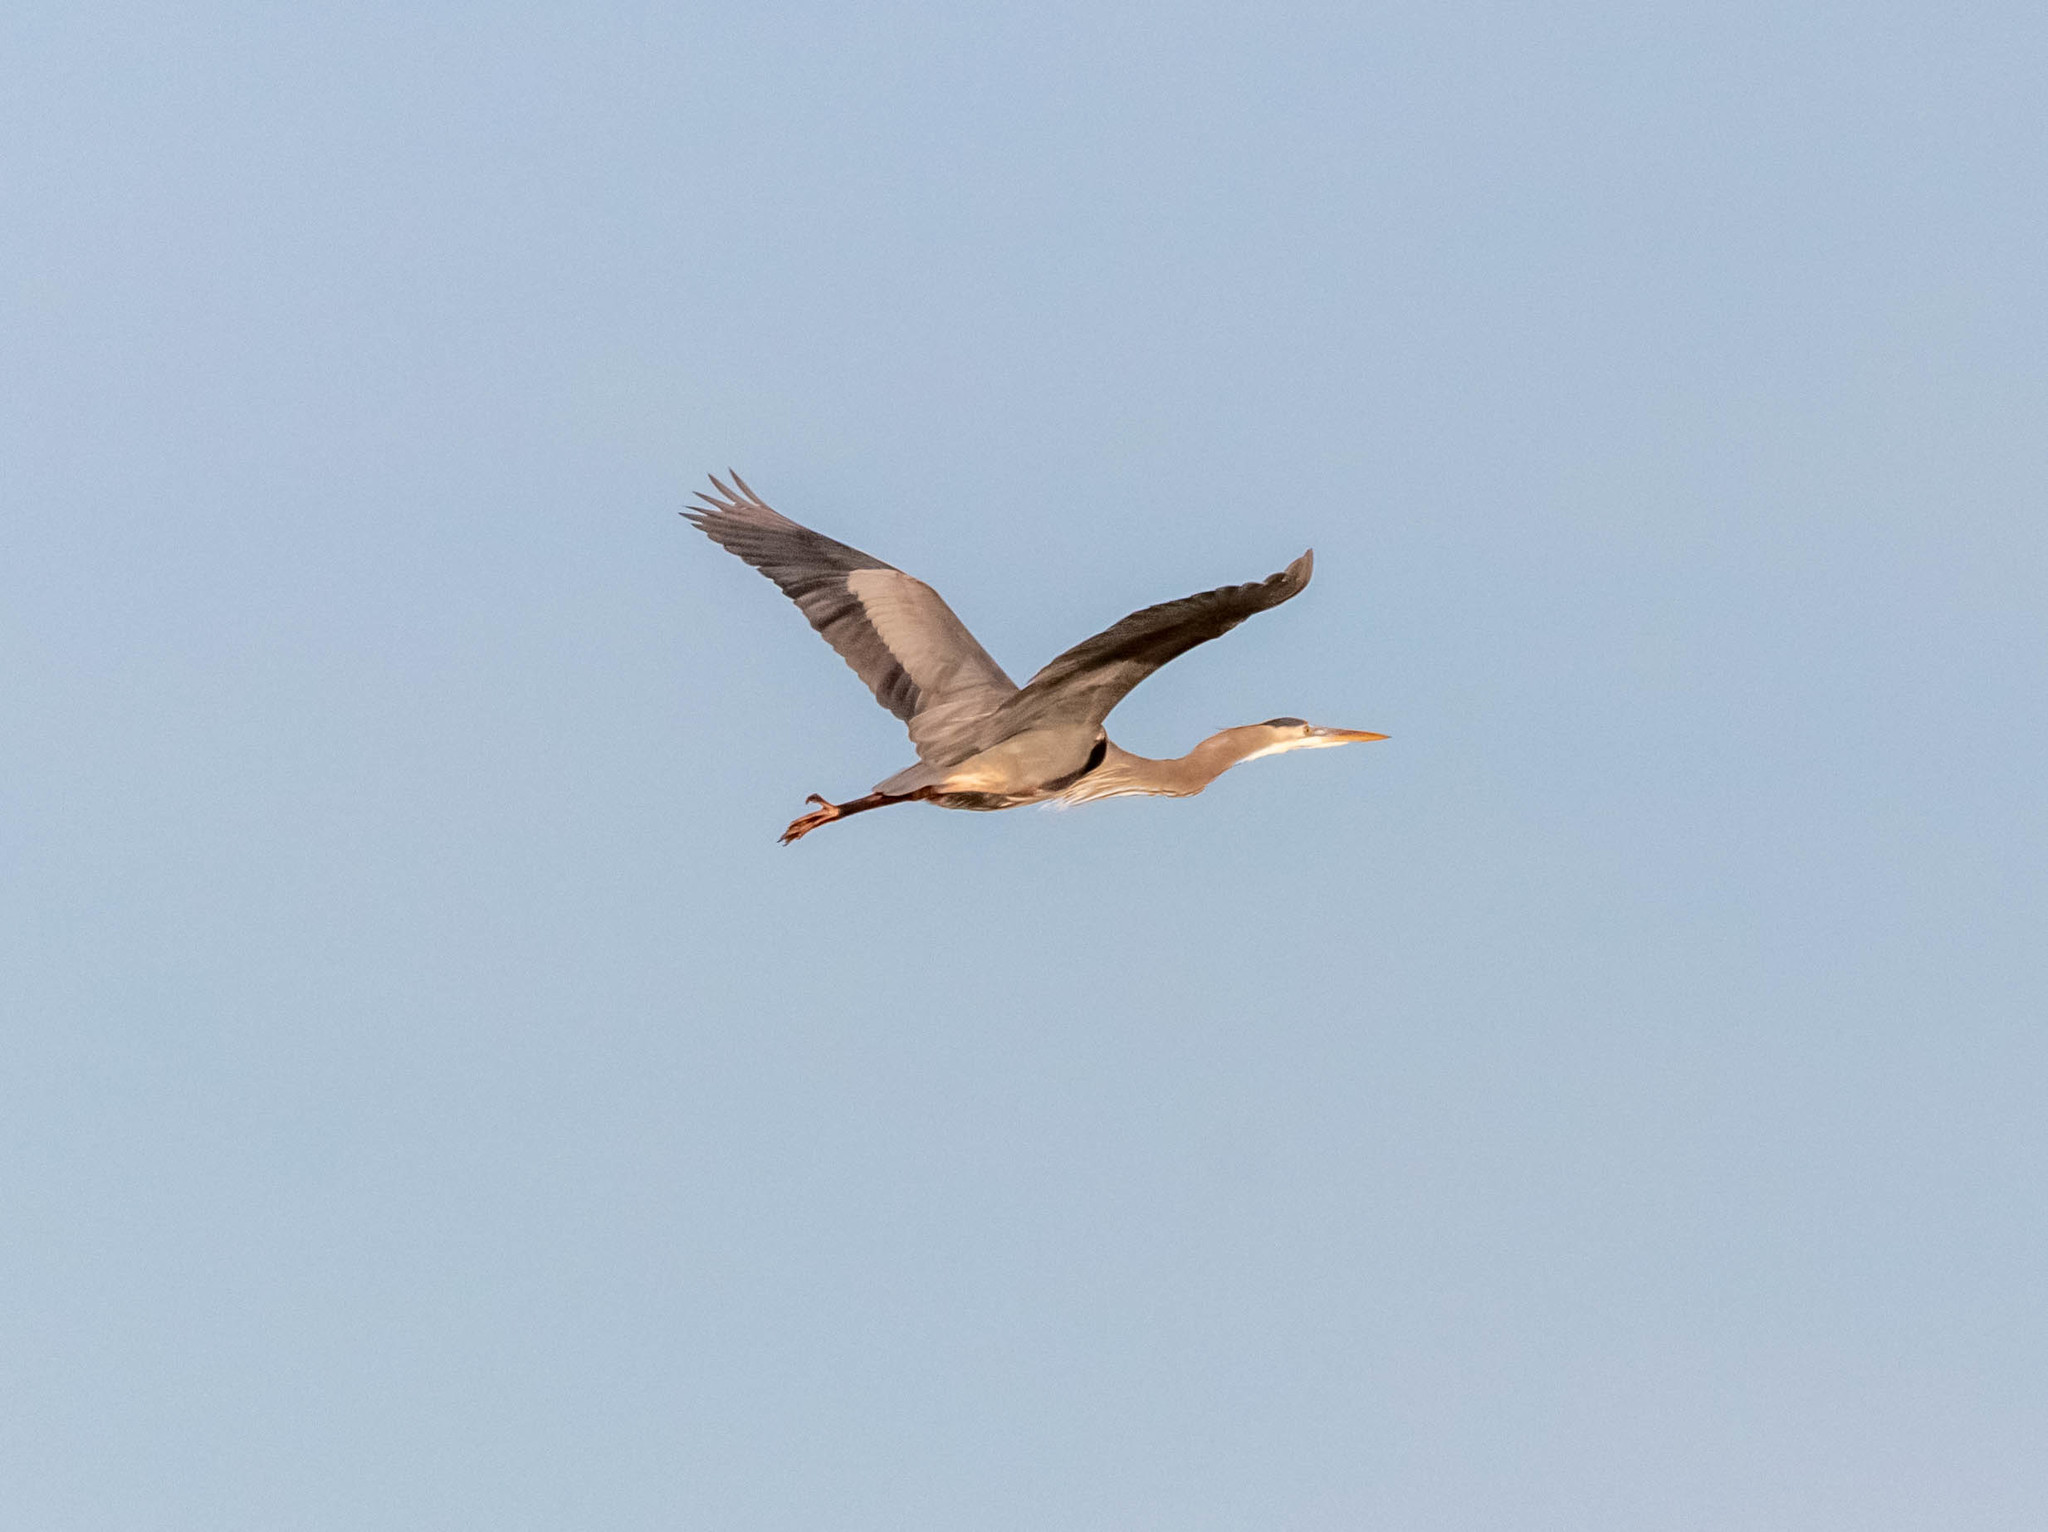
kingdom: Animalia
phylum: Chordata
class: Aves
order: Pelecaniformes
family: Ardeidae
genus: Ardea
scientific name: Ardea herodias
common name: Great blue heron
